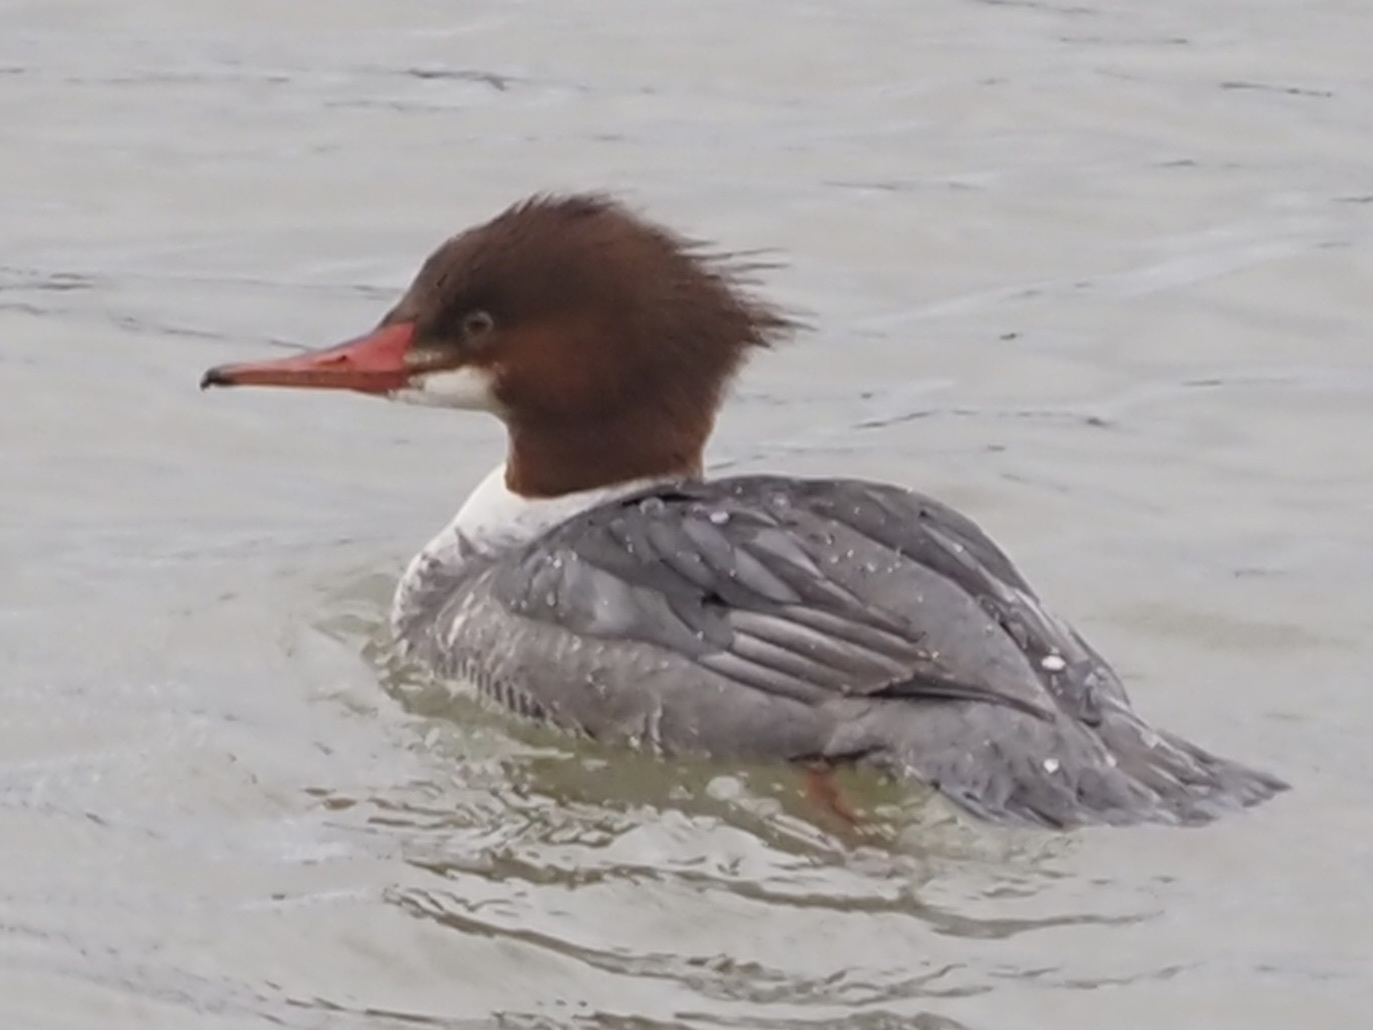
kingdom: Animalia
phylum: Chordata
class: Aves
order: Anseriformes
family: Anatidae
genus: Mergus
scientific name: Mergus merganser
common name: Common merganser
